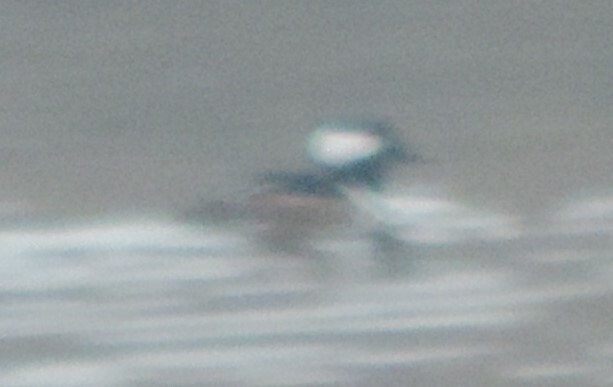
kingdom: Animalia
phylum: Chordata
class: Aves
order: Anseriformes
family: Anatidae
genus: Lophodytes
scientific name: Lophodytes cucullatus
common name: Hooded merganser
